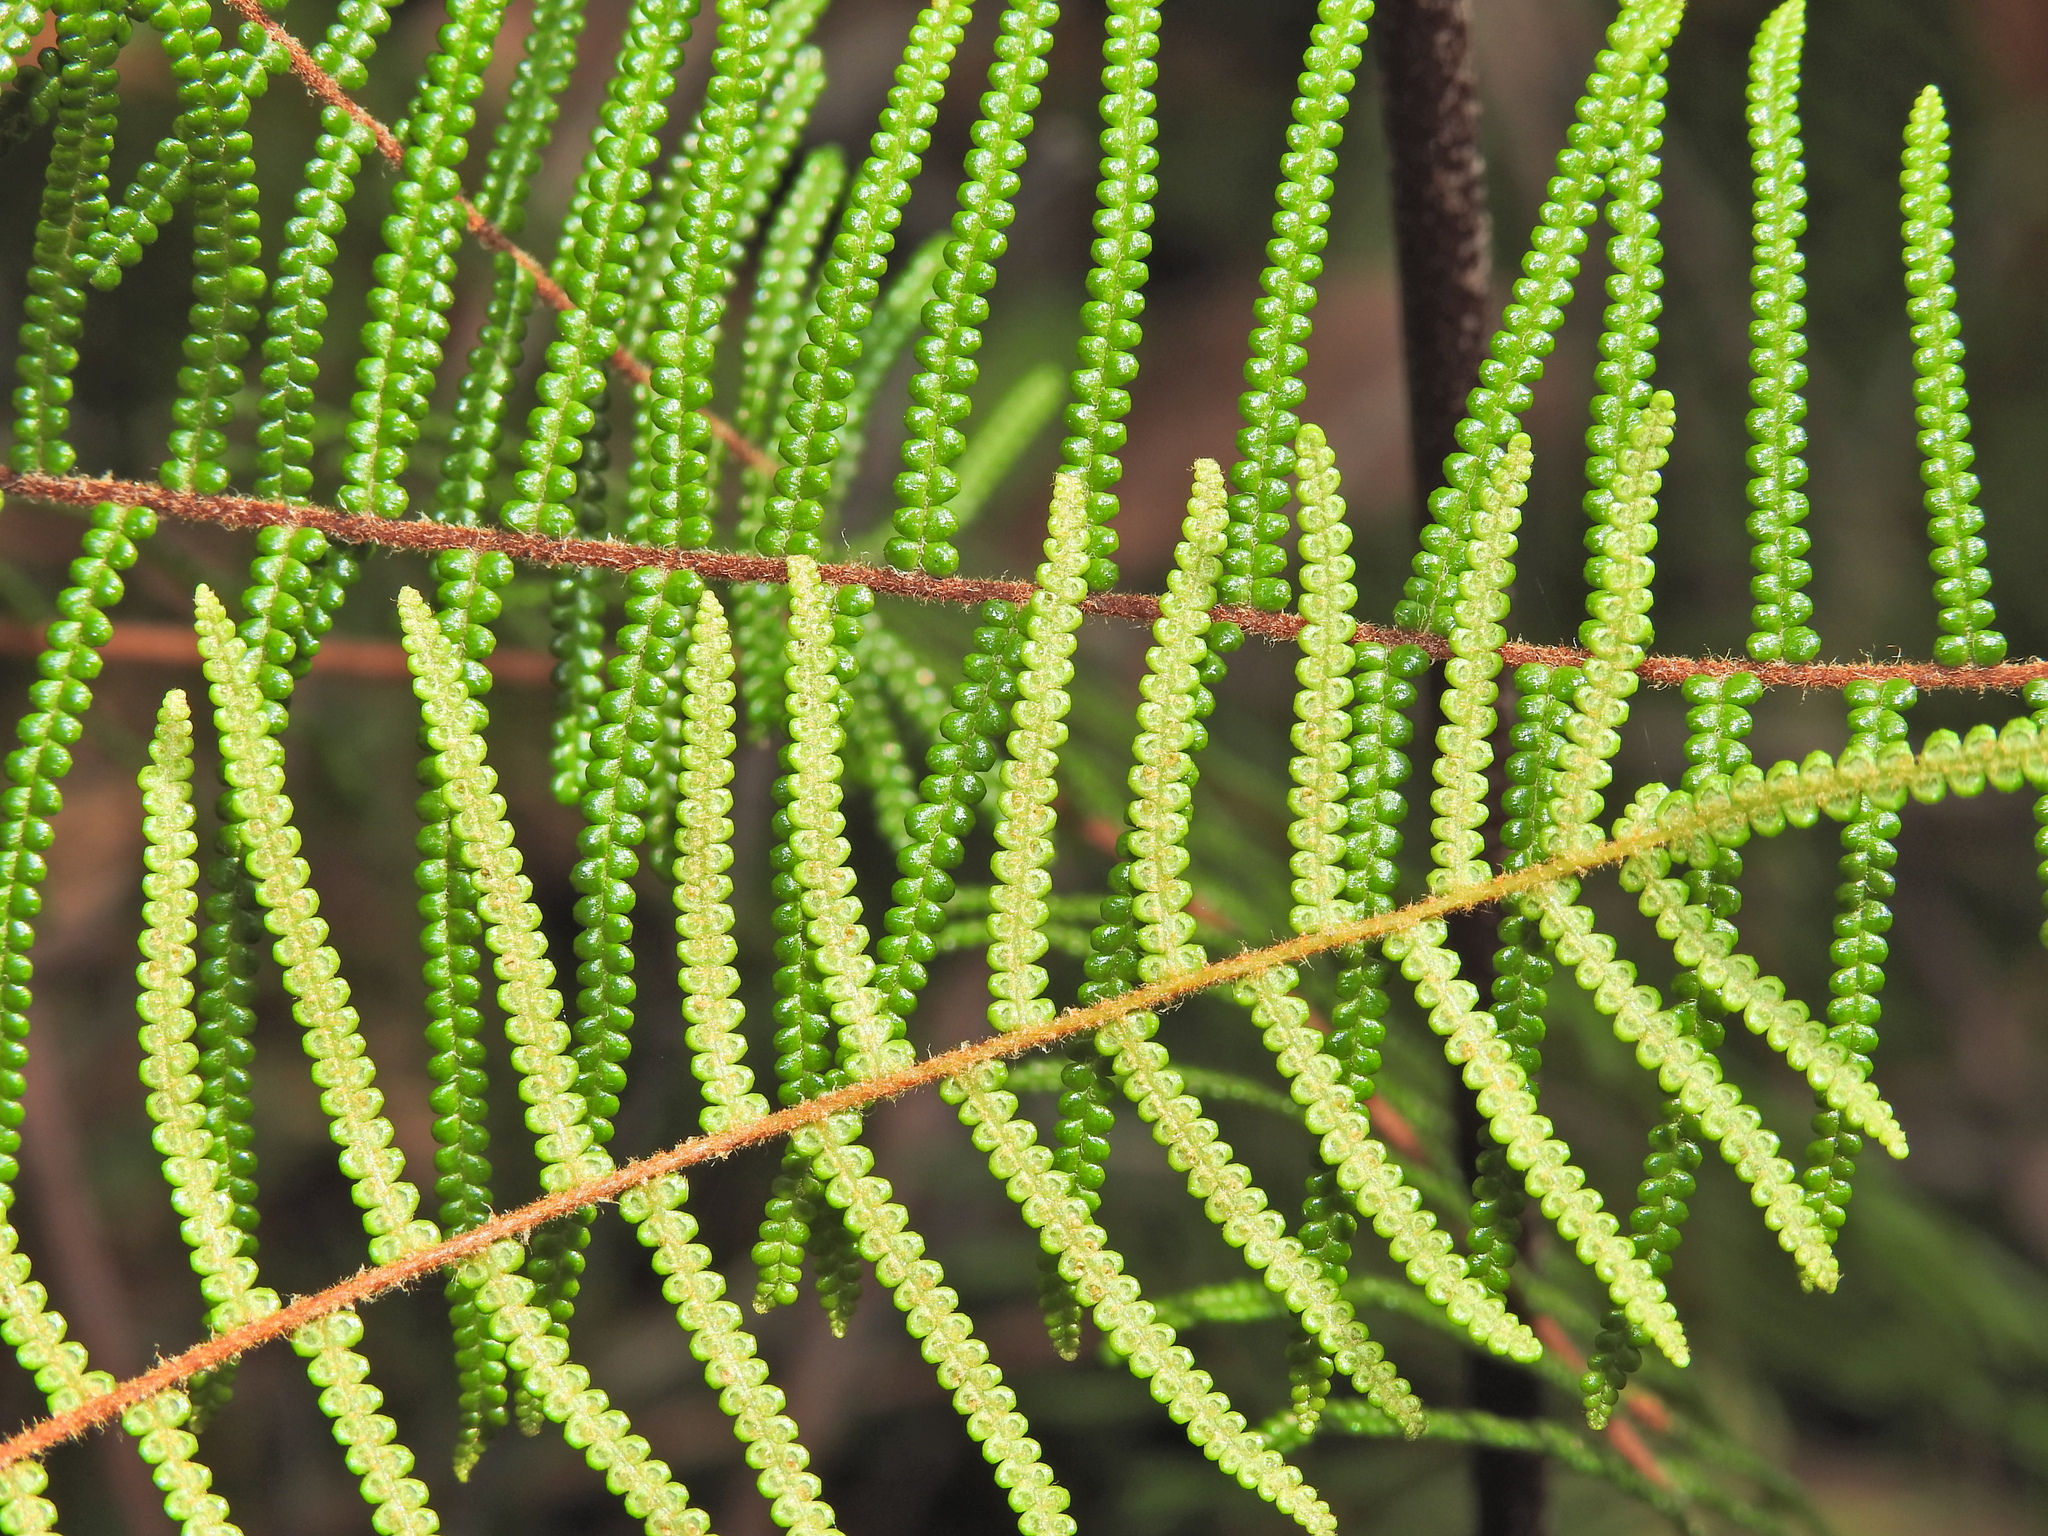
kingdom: Plantae
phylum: Tracheophyta
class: Polypodiopsida
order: Gleicheniales
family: Gleicheniaceae
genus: Gleichenia
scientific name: Gleichenia dicarpa
